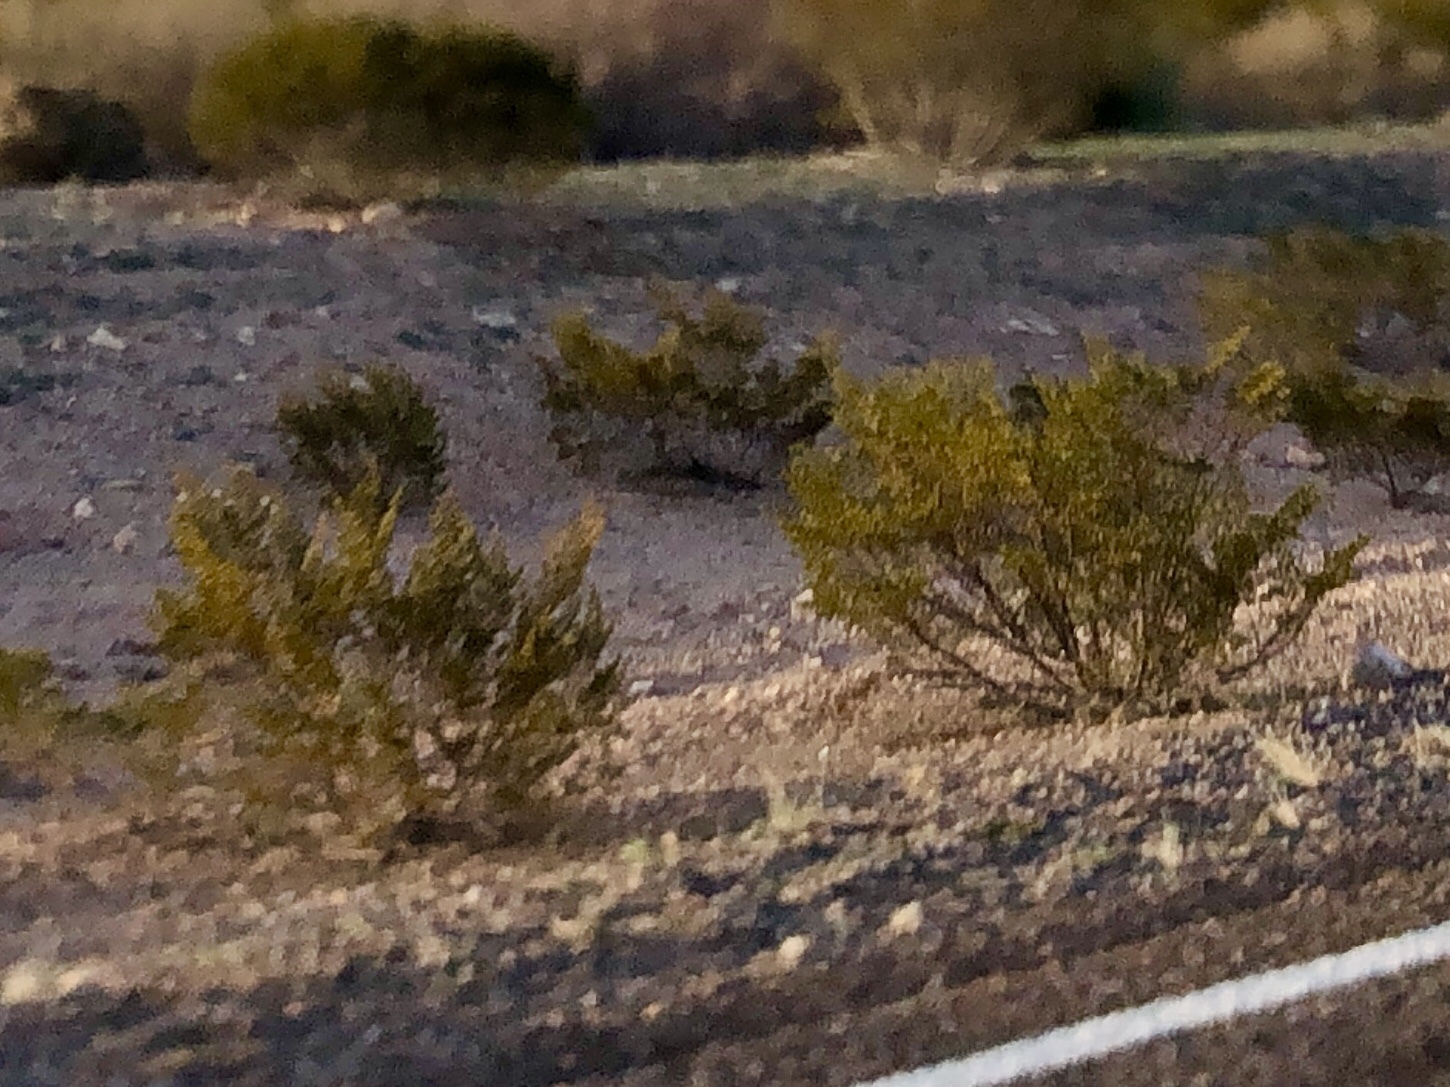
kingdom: Plantae
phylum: Tracheophyta
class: Magnoliopsida
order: Zygophyllales
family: Zygophyllaceae
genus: Larrea
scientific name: Larrea tridentata
